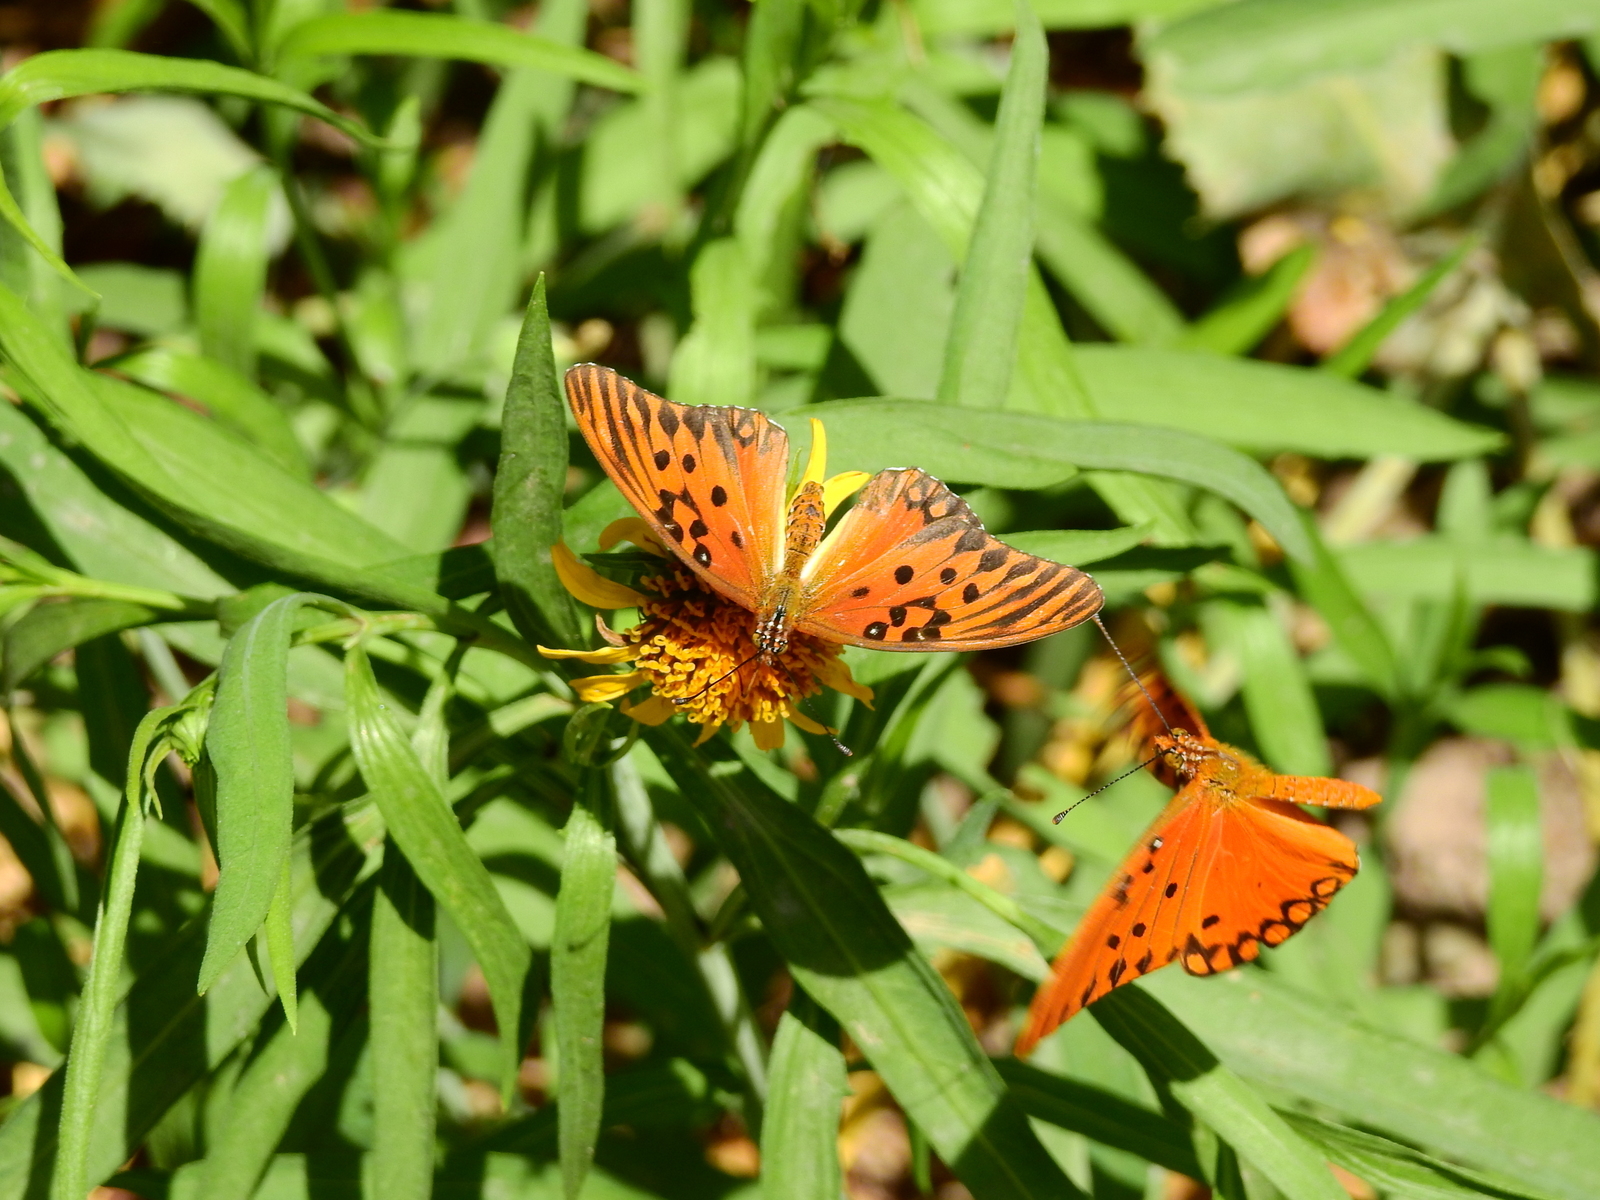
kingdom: Animalia
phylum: Arthropoda
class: Insecta
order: Lepidoptera
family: Nymphalidae
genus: Dione
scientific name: Dione vanillae
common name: Gulf fritillary
